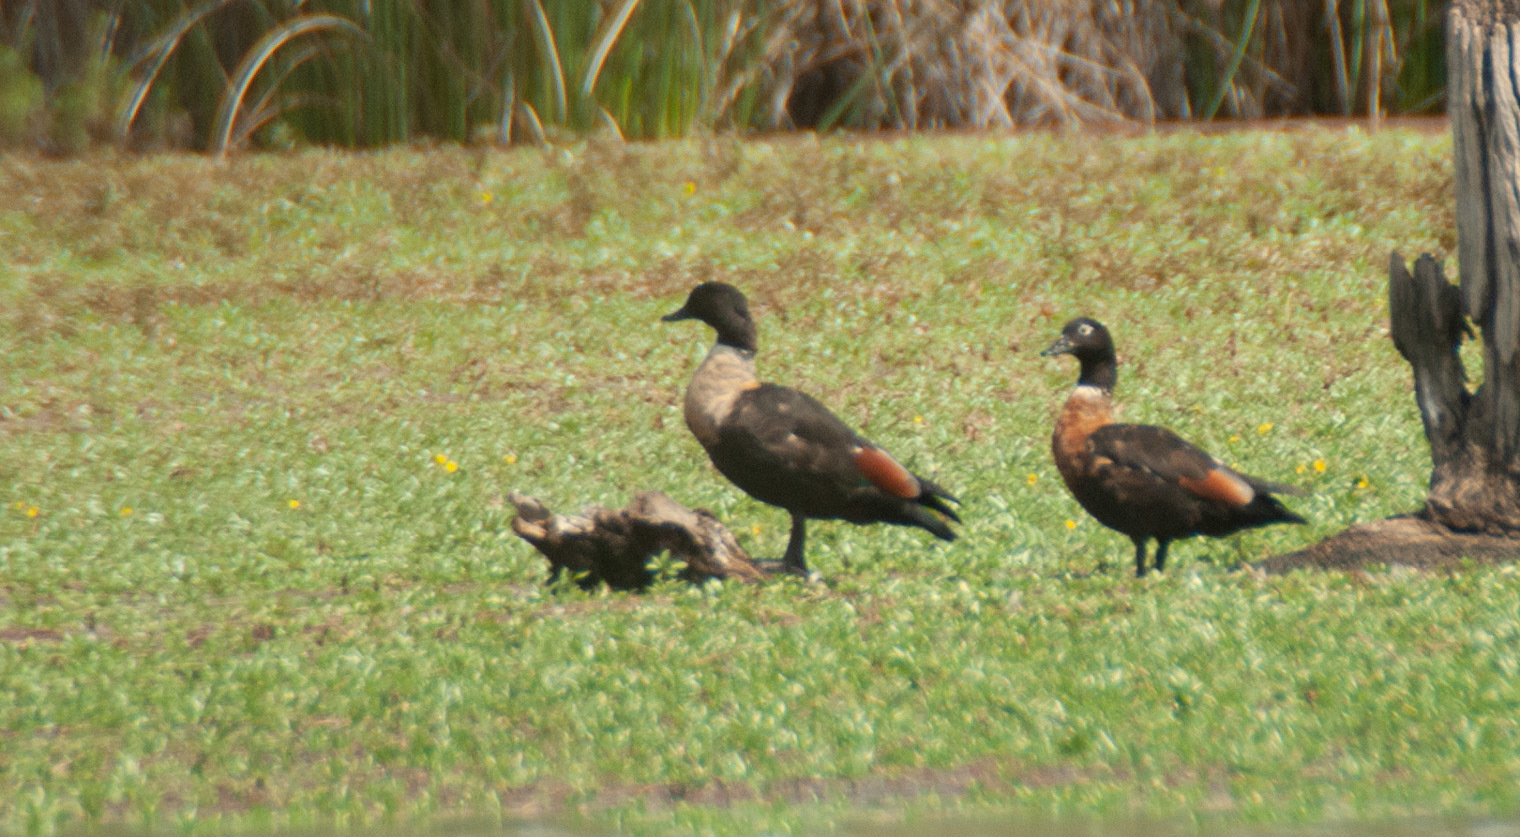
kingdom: Animalia
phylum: Chordata
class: Aves
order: Anseriformes
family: Anatidae
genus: Tadorna
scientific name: Tadorna tadornoides
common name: Australian shelduck
